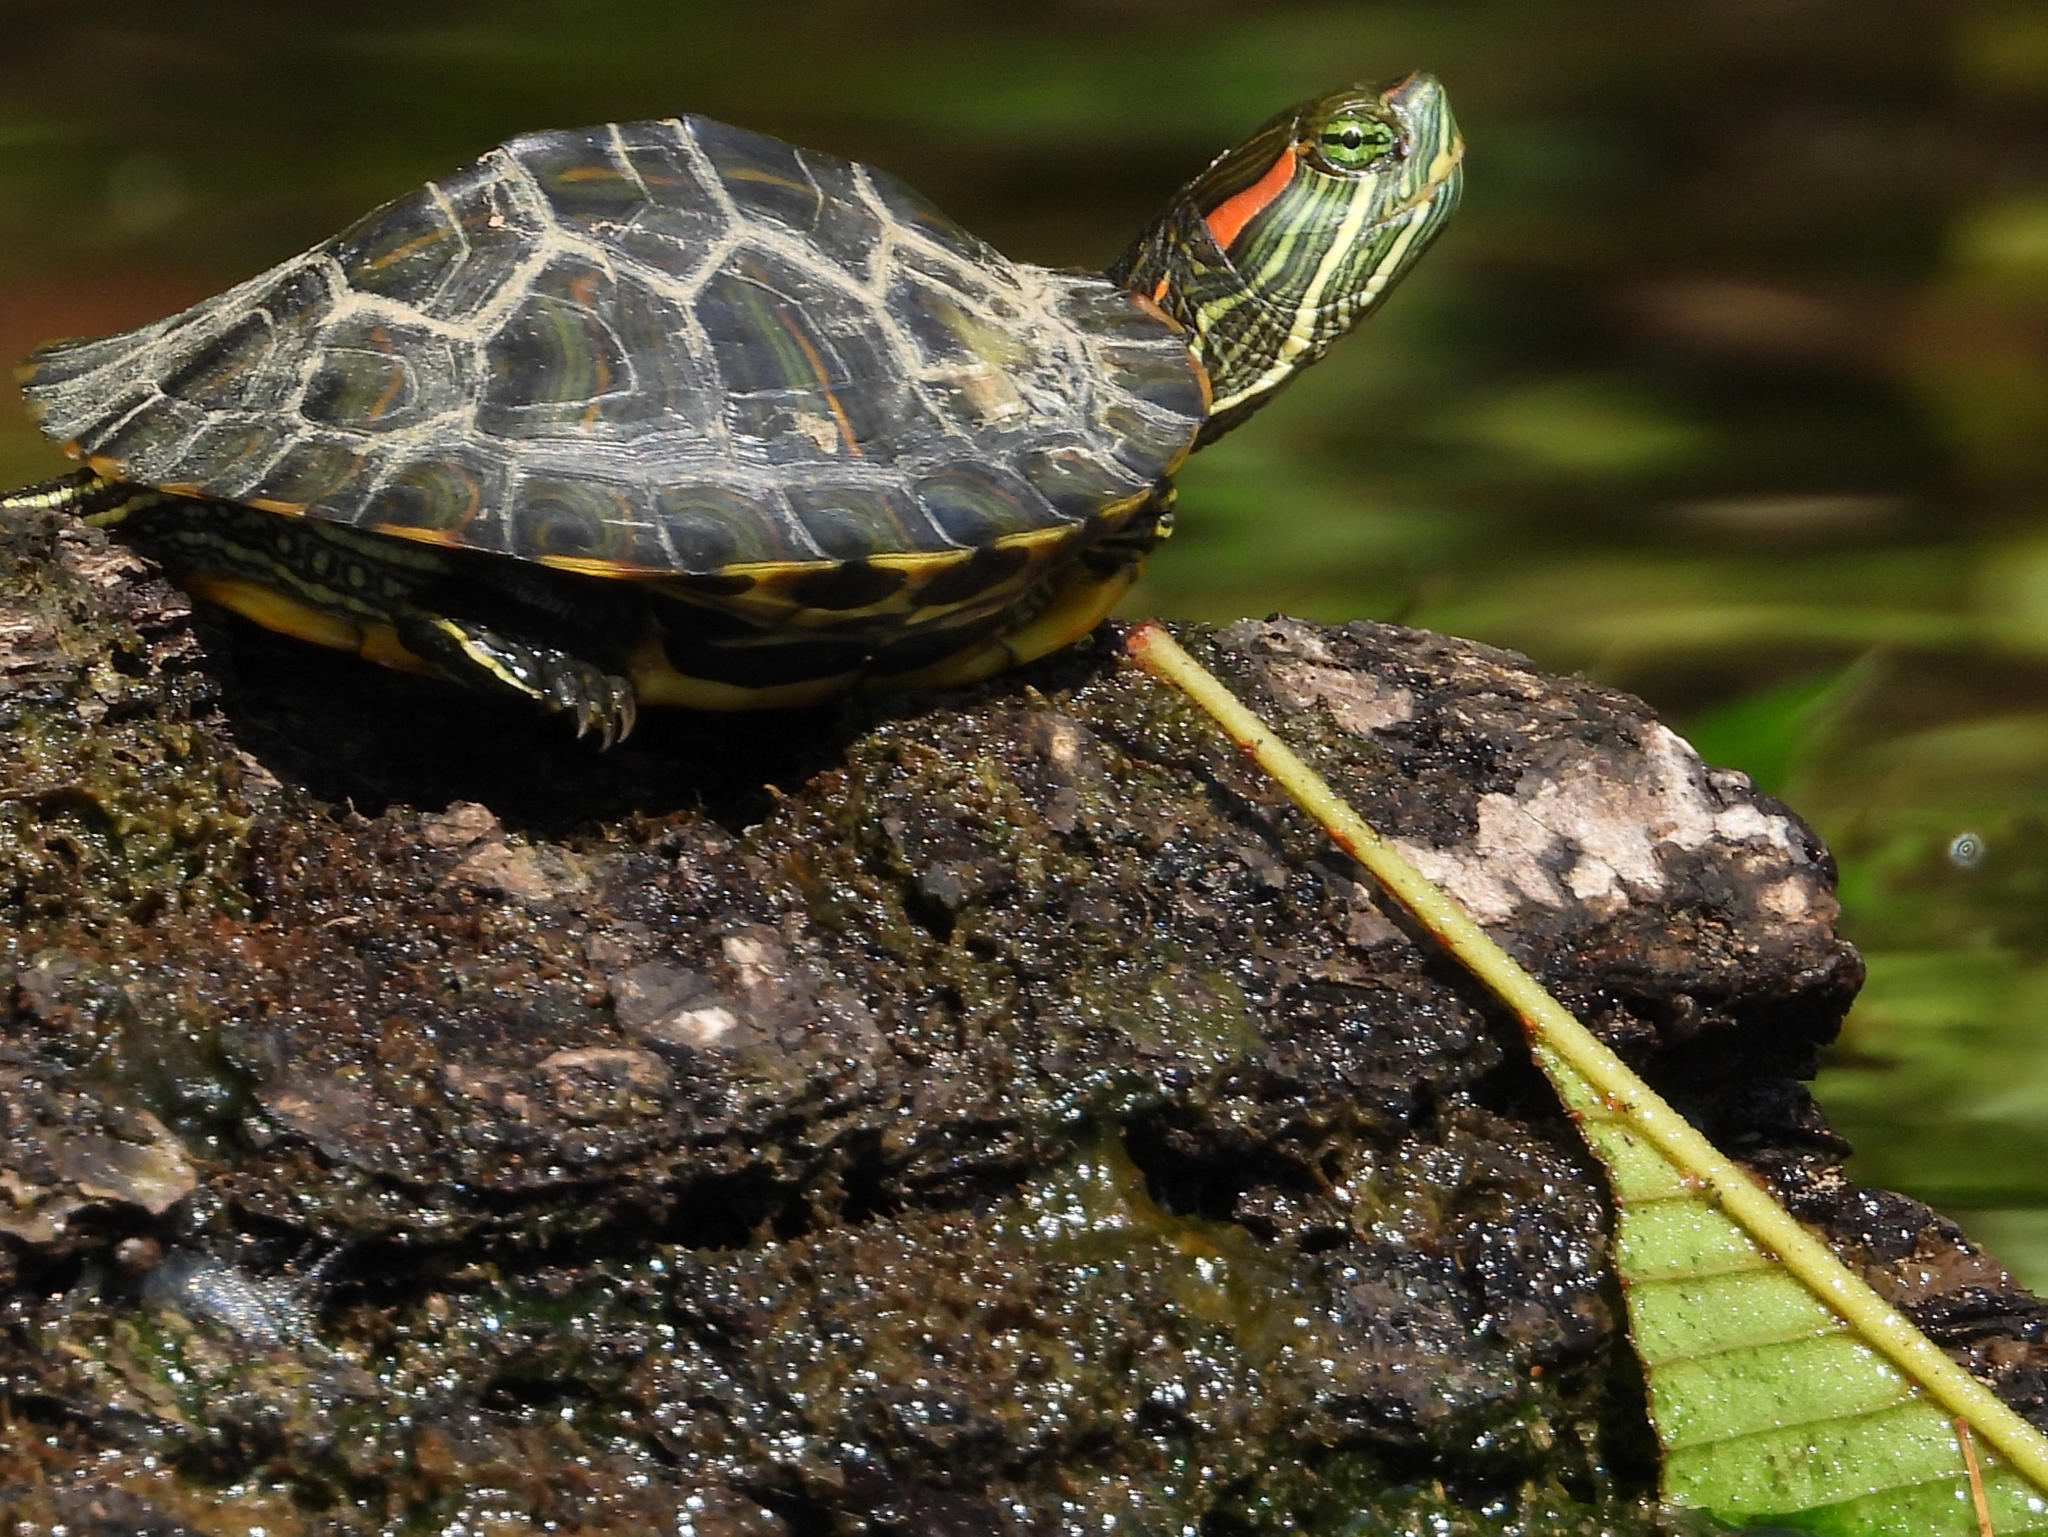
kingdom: Animalia
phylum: Chordata
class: Testudines
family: Emydidae
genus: Trachemys
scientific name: Trachemys scripta
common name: Slider
